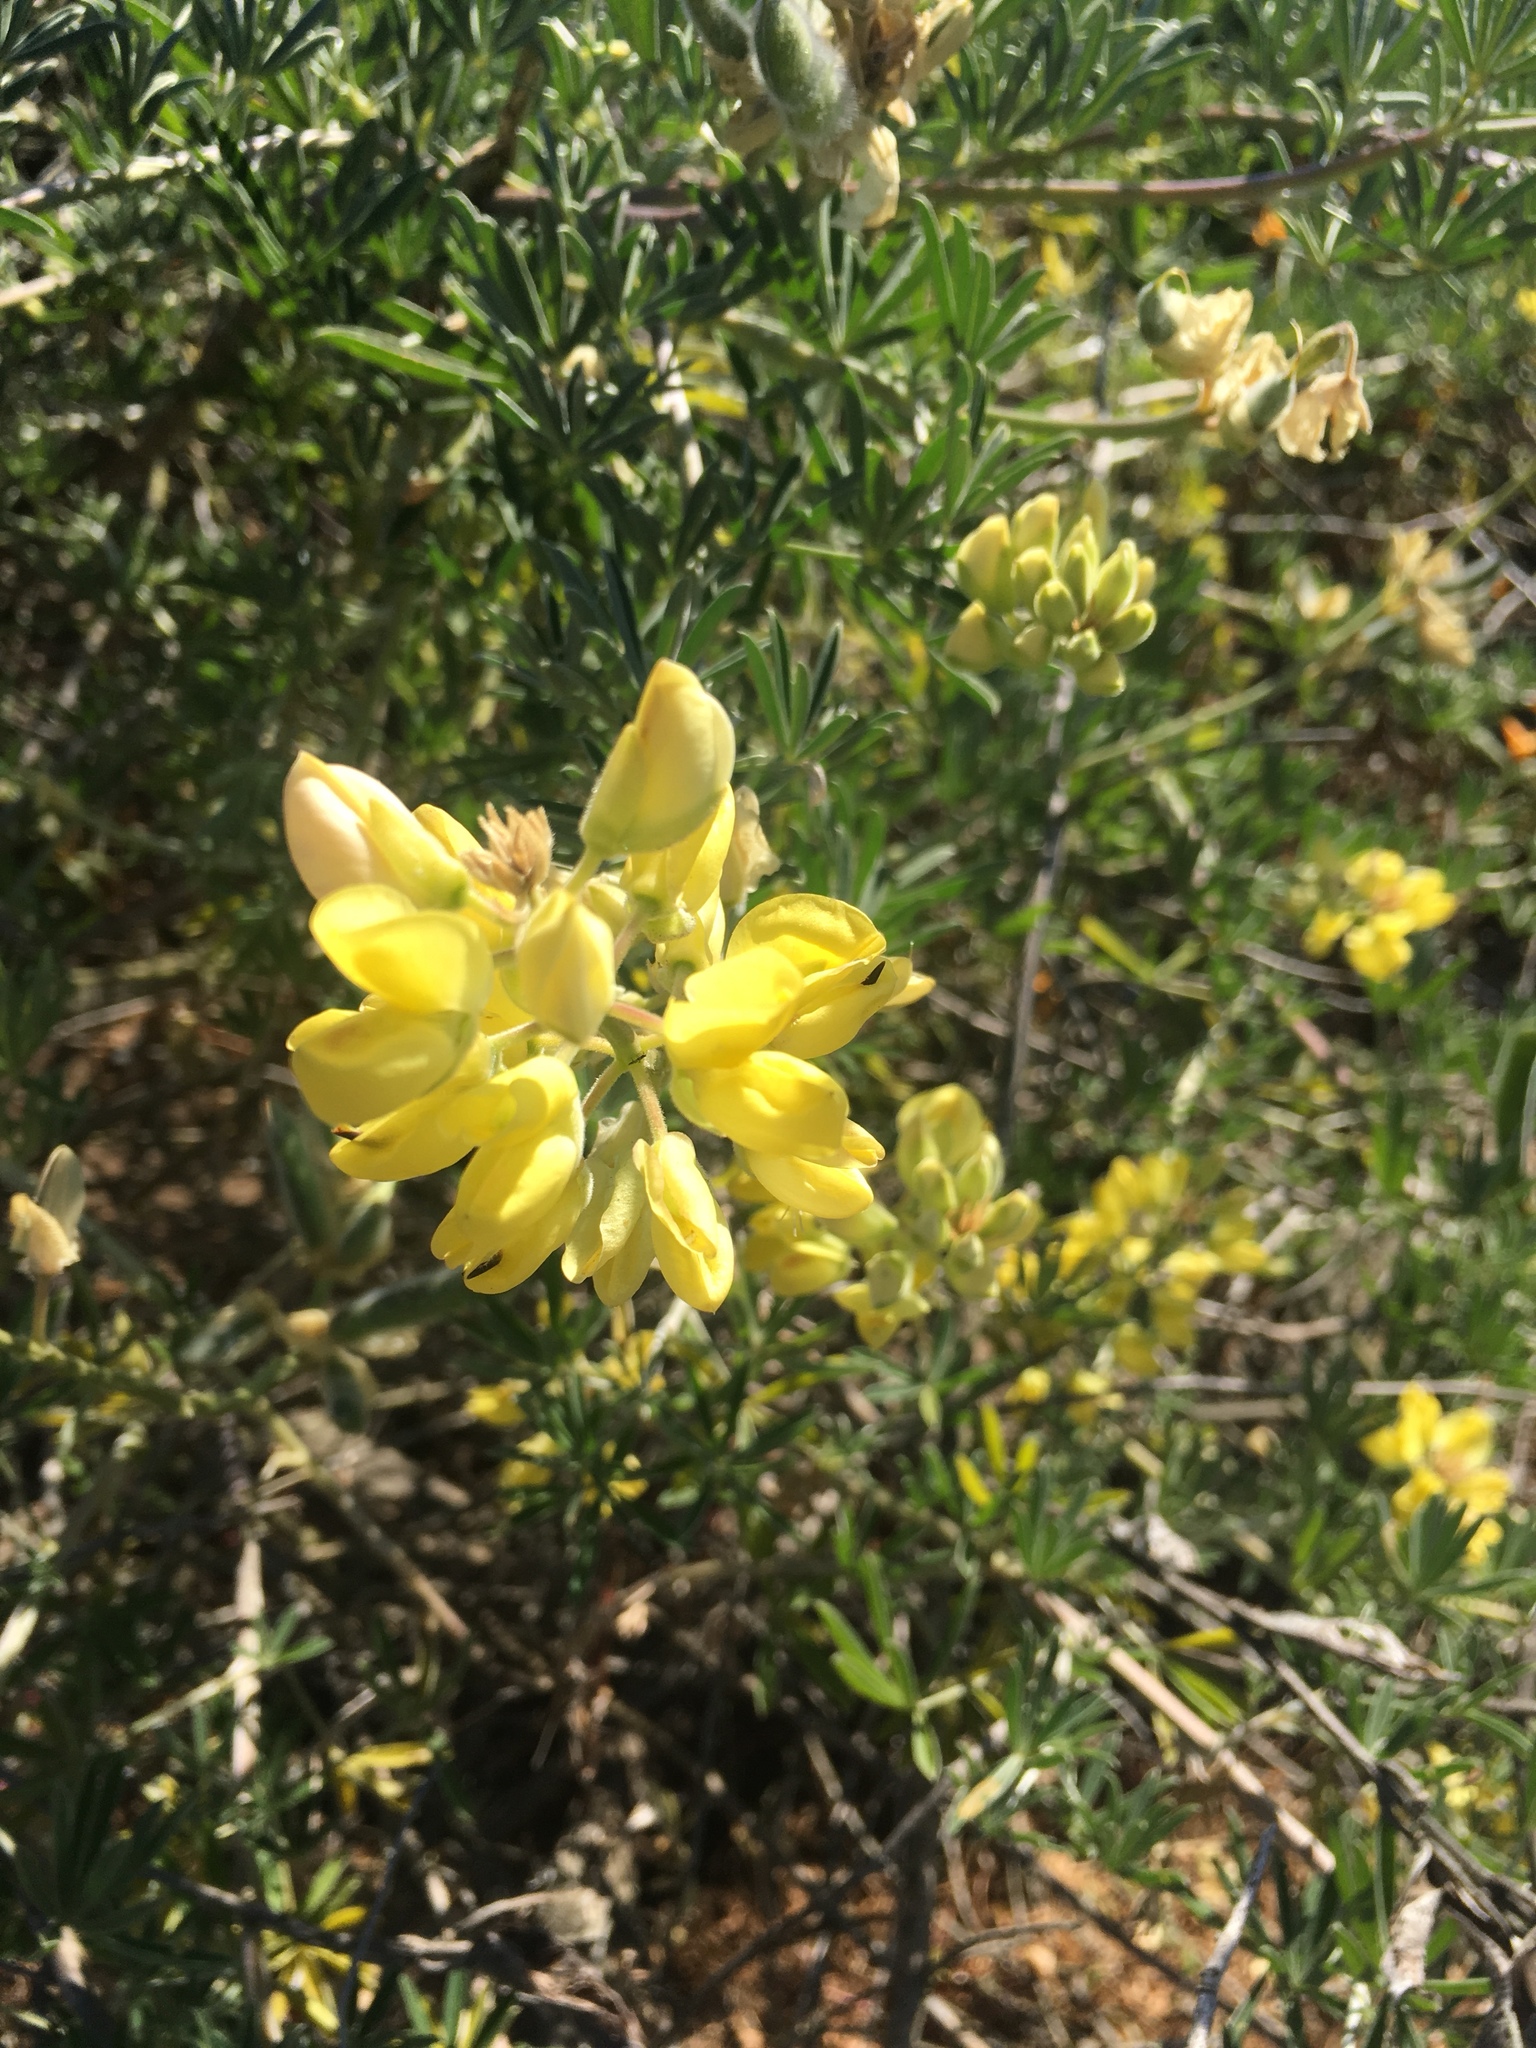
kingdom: Plantae
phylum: Tracheophyta
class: Magnoliopsida
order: Fabales
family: Fabaceae
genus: Lupinus
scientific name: Lupinus arboreus
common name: Yellow bush lupine
